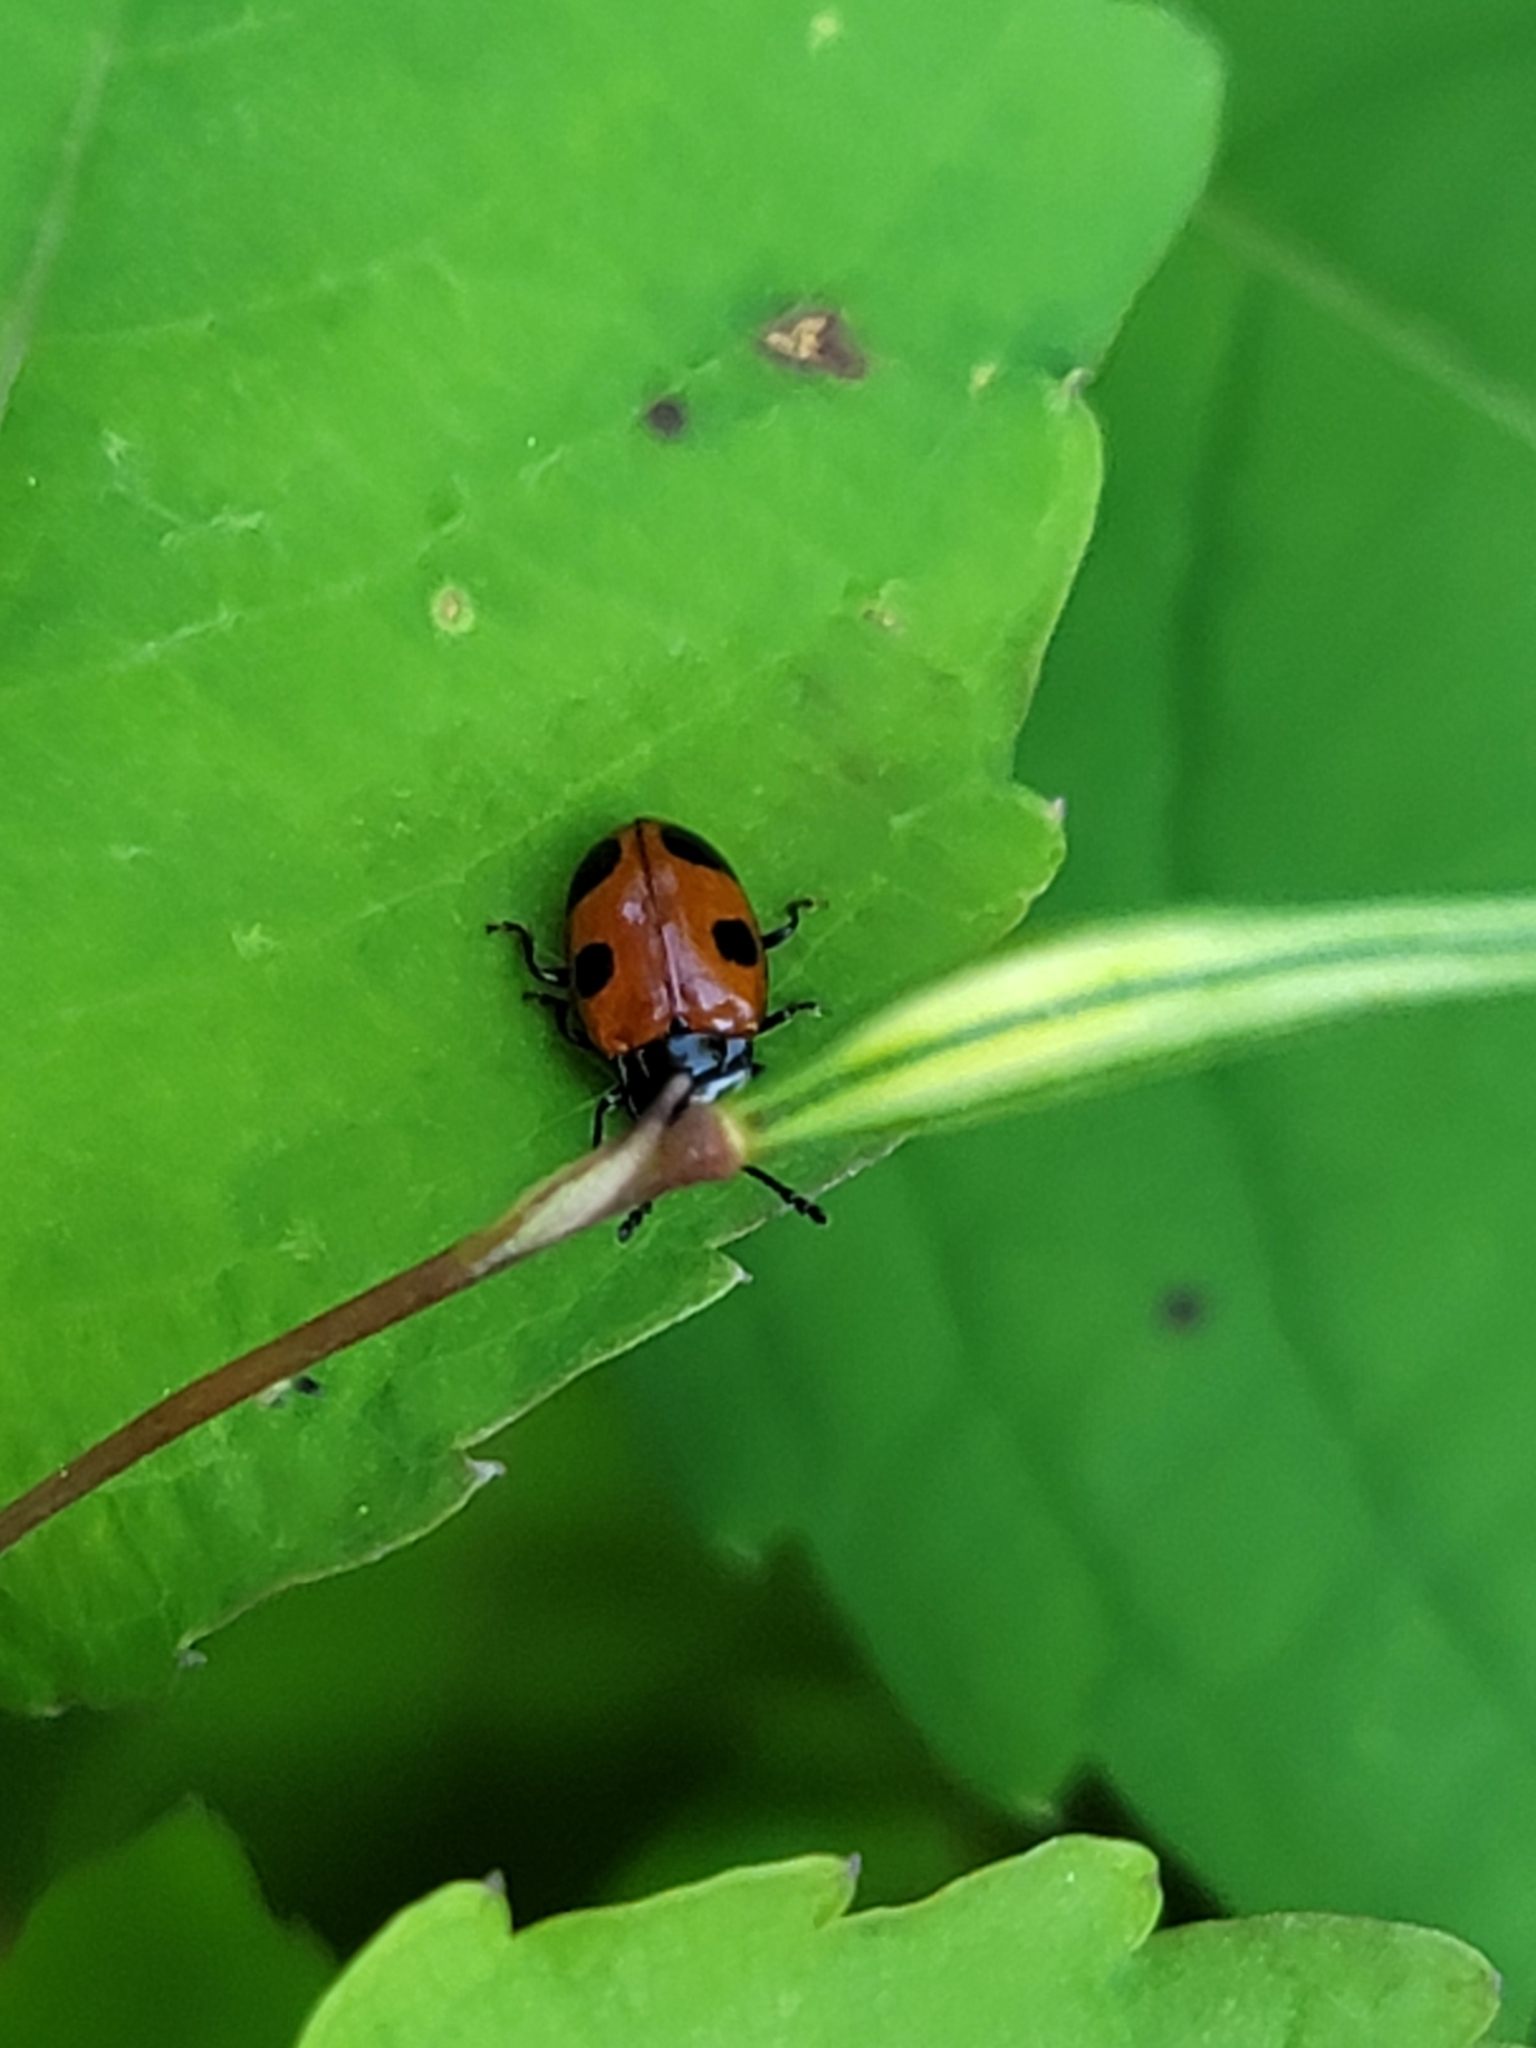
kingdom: Animalia
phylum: Arthropoda
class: Insecta
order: Coleoptera
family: Endomychidae
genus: Endomychus
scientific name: Endomychus biguttatus
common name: Handsome fungus beetle
